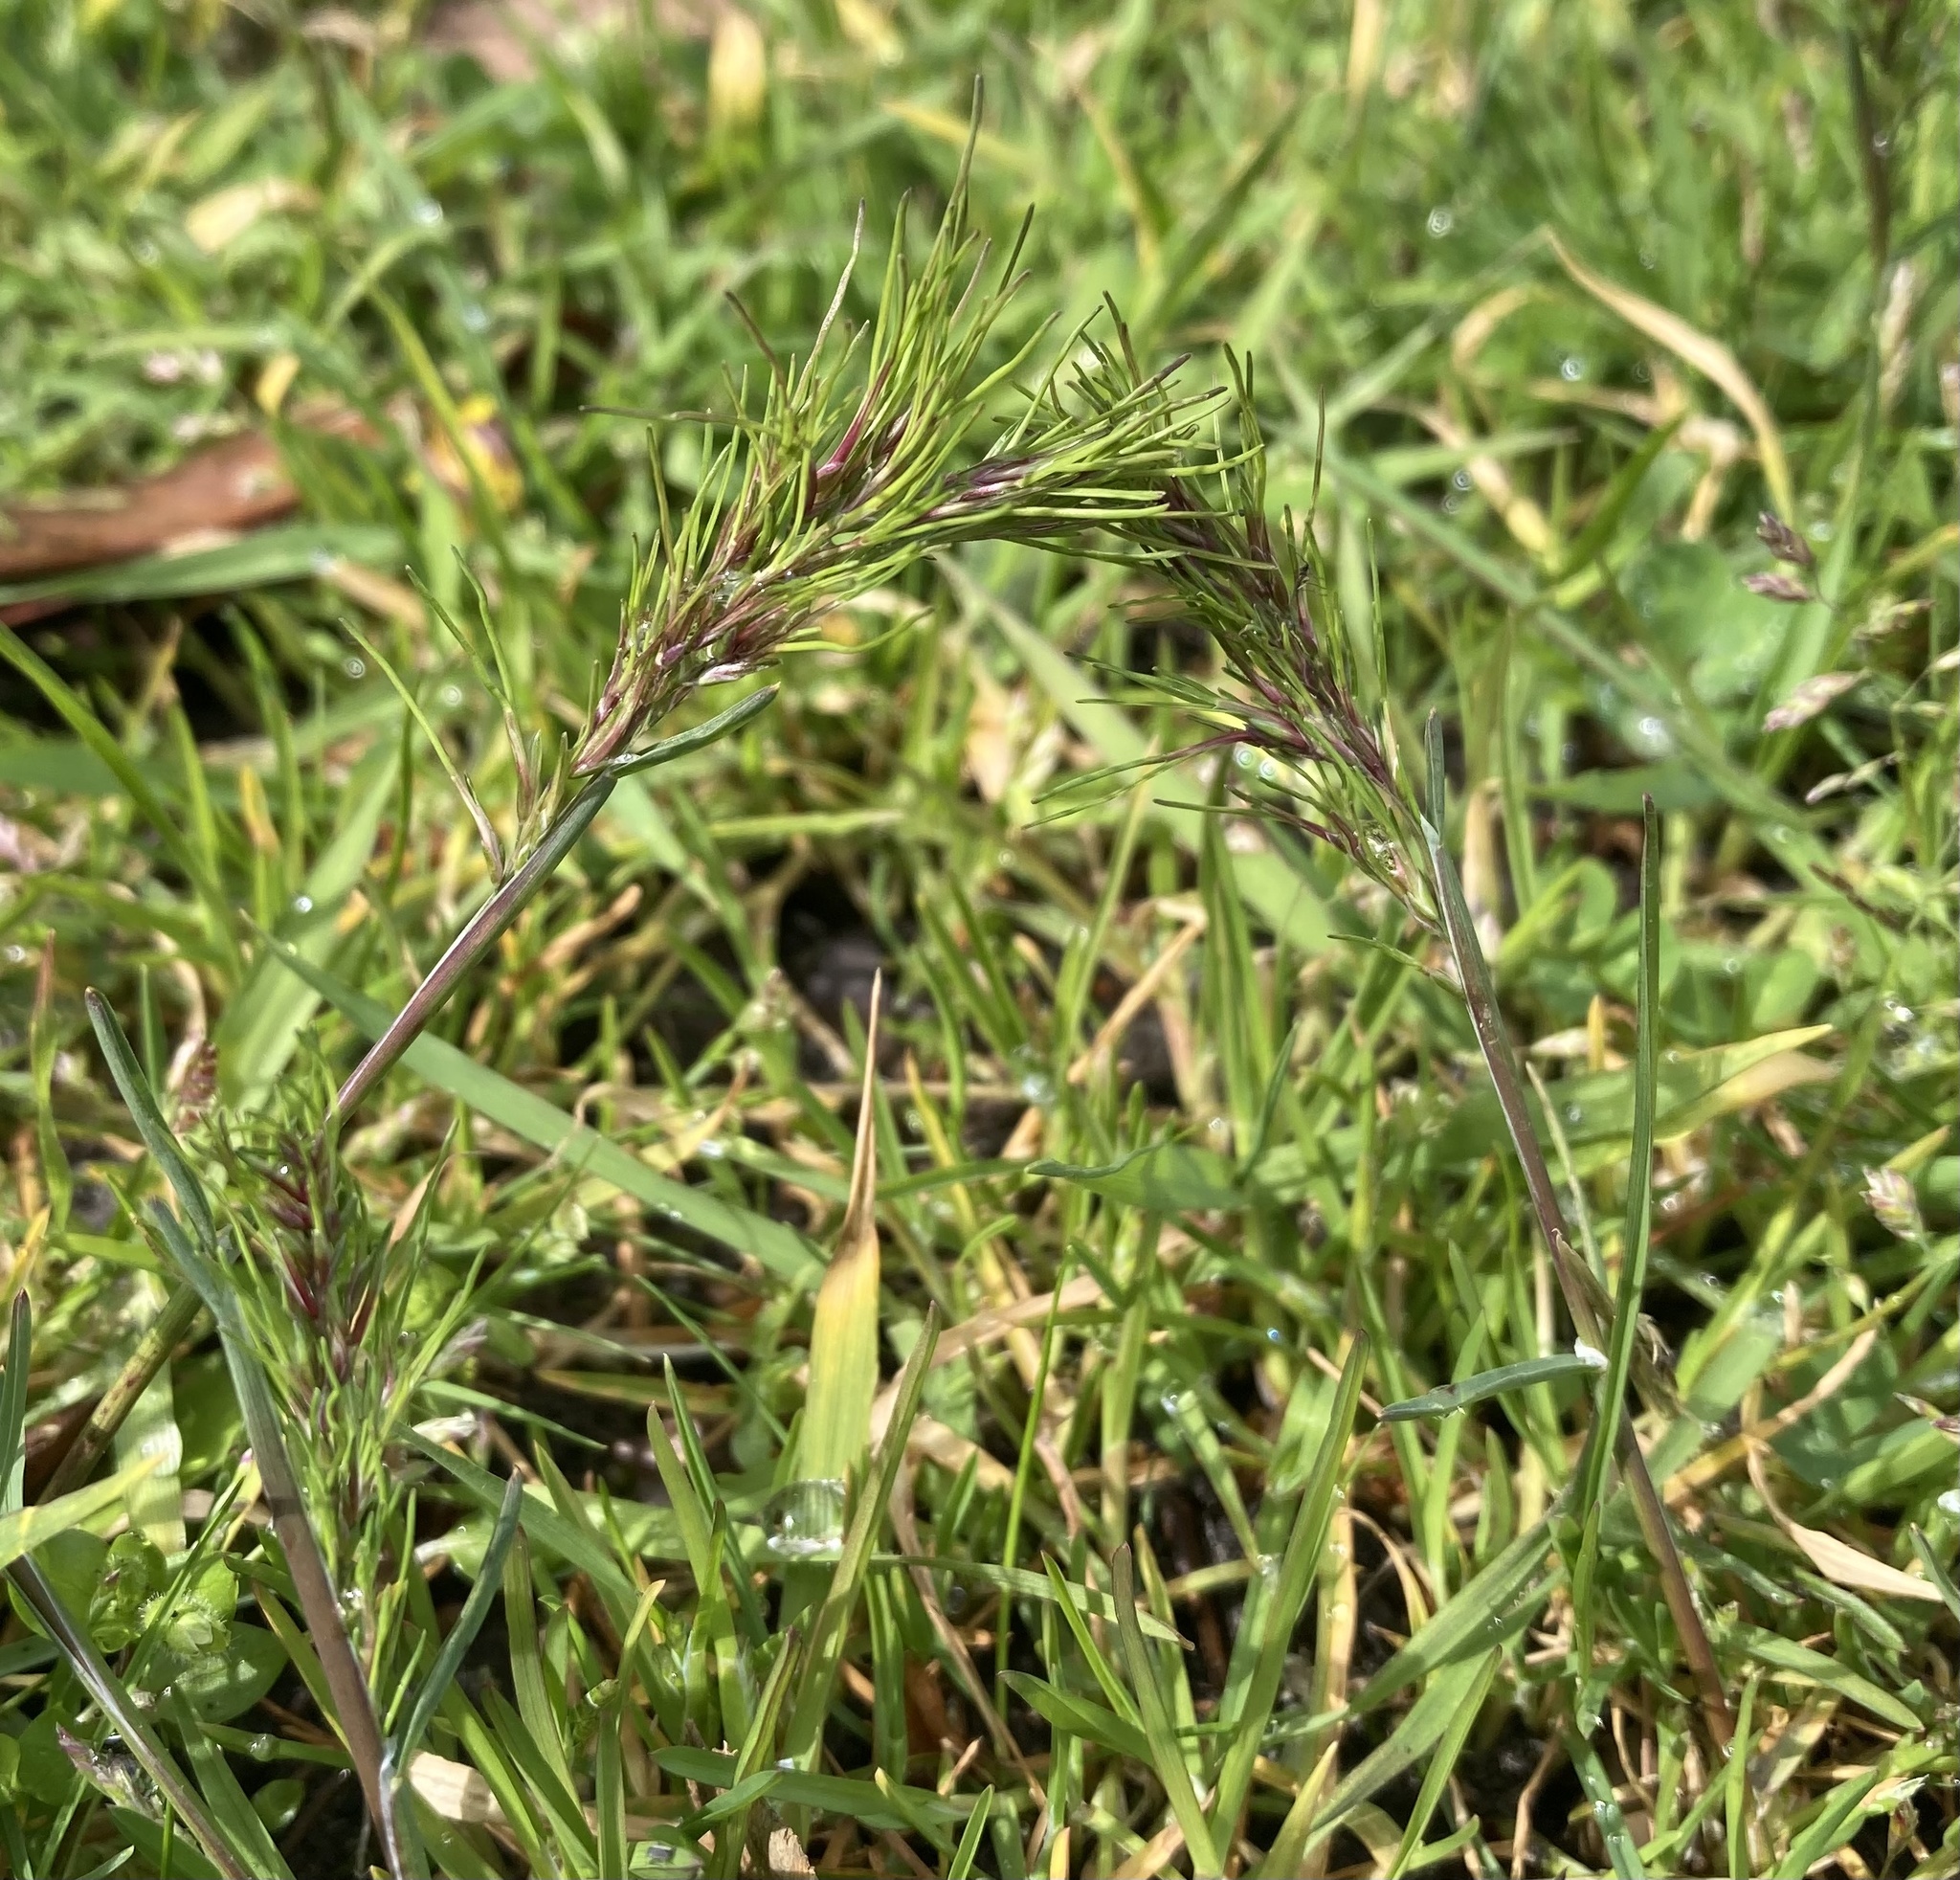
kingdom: Plantae
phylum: Tracheophyta
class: Liliopsida
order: Poales
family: Poaceae
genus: Poa
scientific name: Poa bulbosa
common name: Bulbous bluegrass
